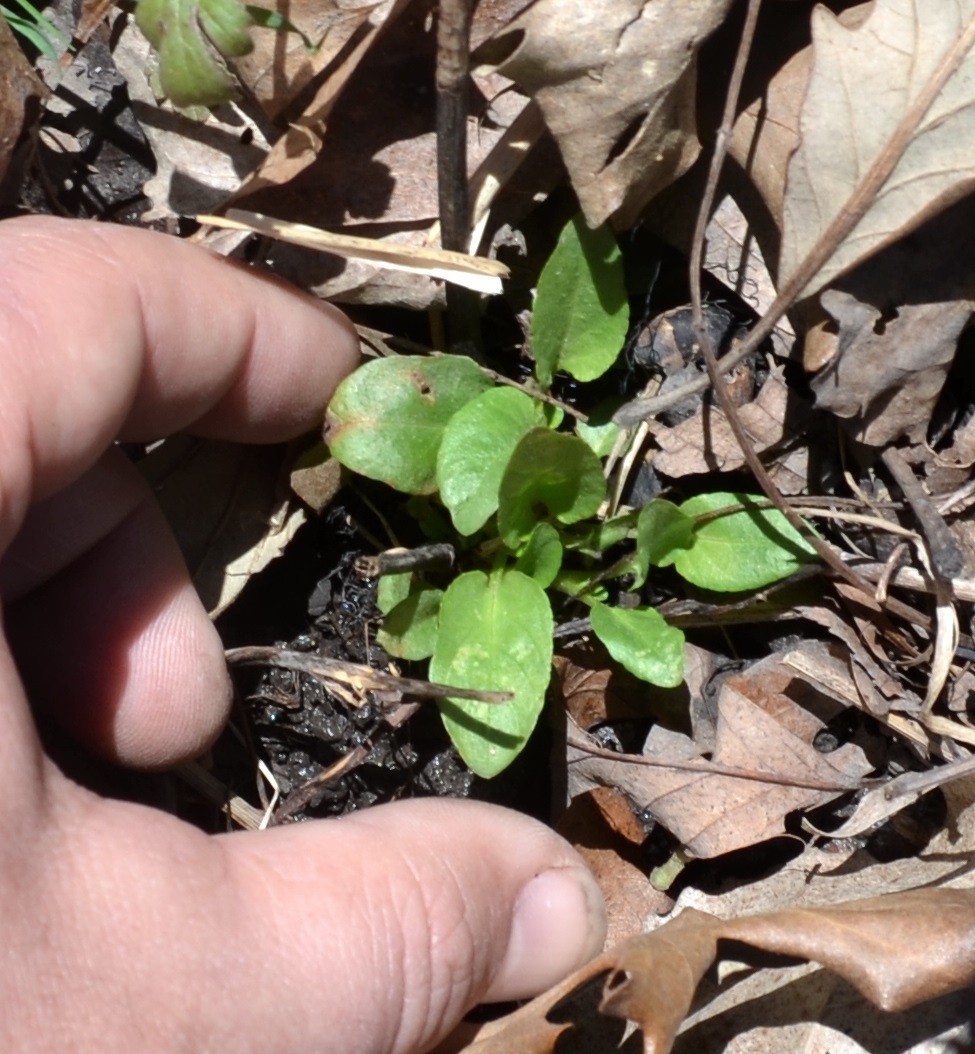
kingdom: Plantae
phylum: Tracheophyta
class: Magnoliopsida
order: Lamiales
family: Lamiaceae
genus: Prunella
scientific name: Prunella vulgaris
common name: Heal-all
